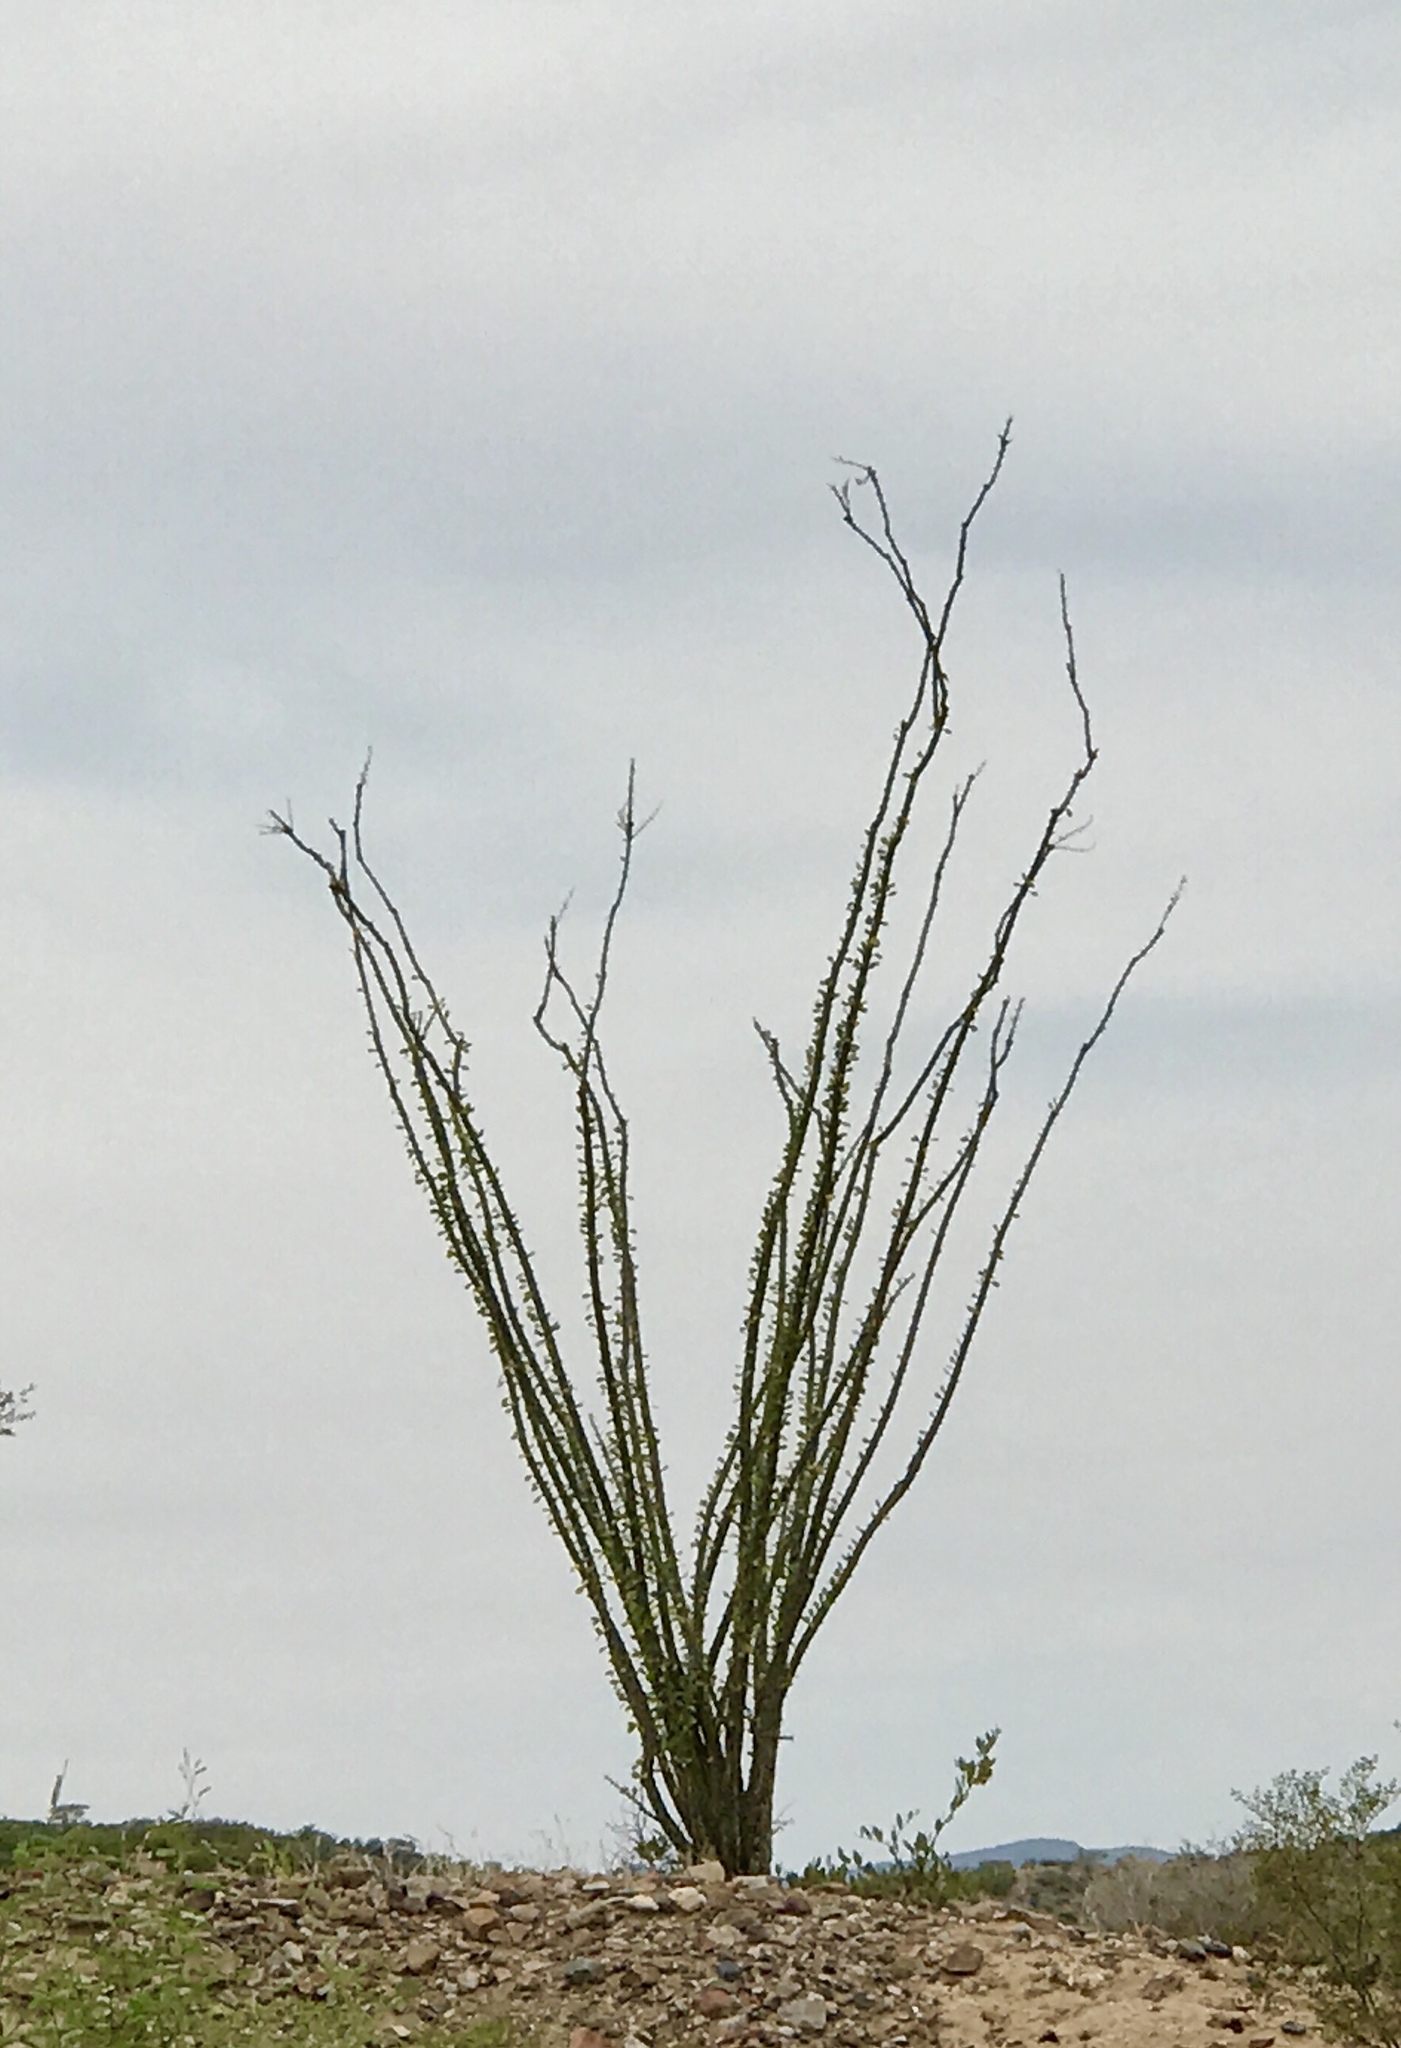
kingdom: Plantae
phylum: Tracheophyta
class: Magnoliopsida
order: Ericales
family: Fouquieriaceae
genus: Fouquieria
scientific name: Fouquieria splendens
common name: Vine-cactus
